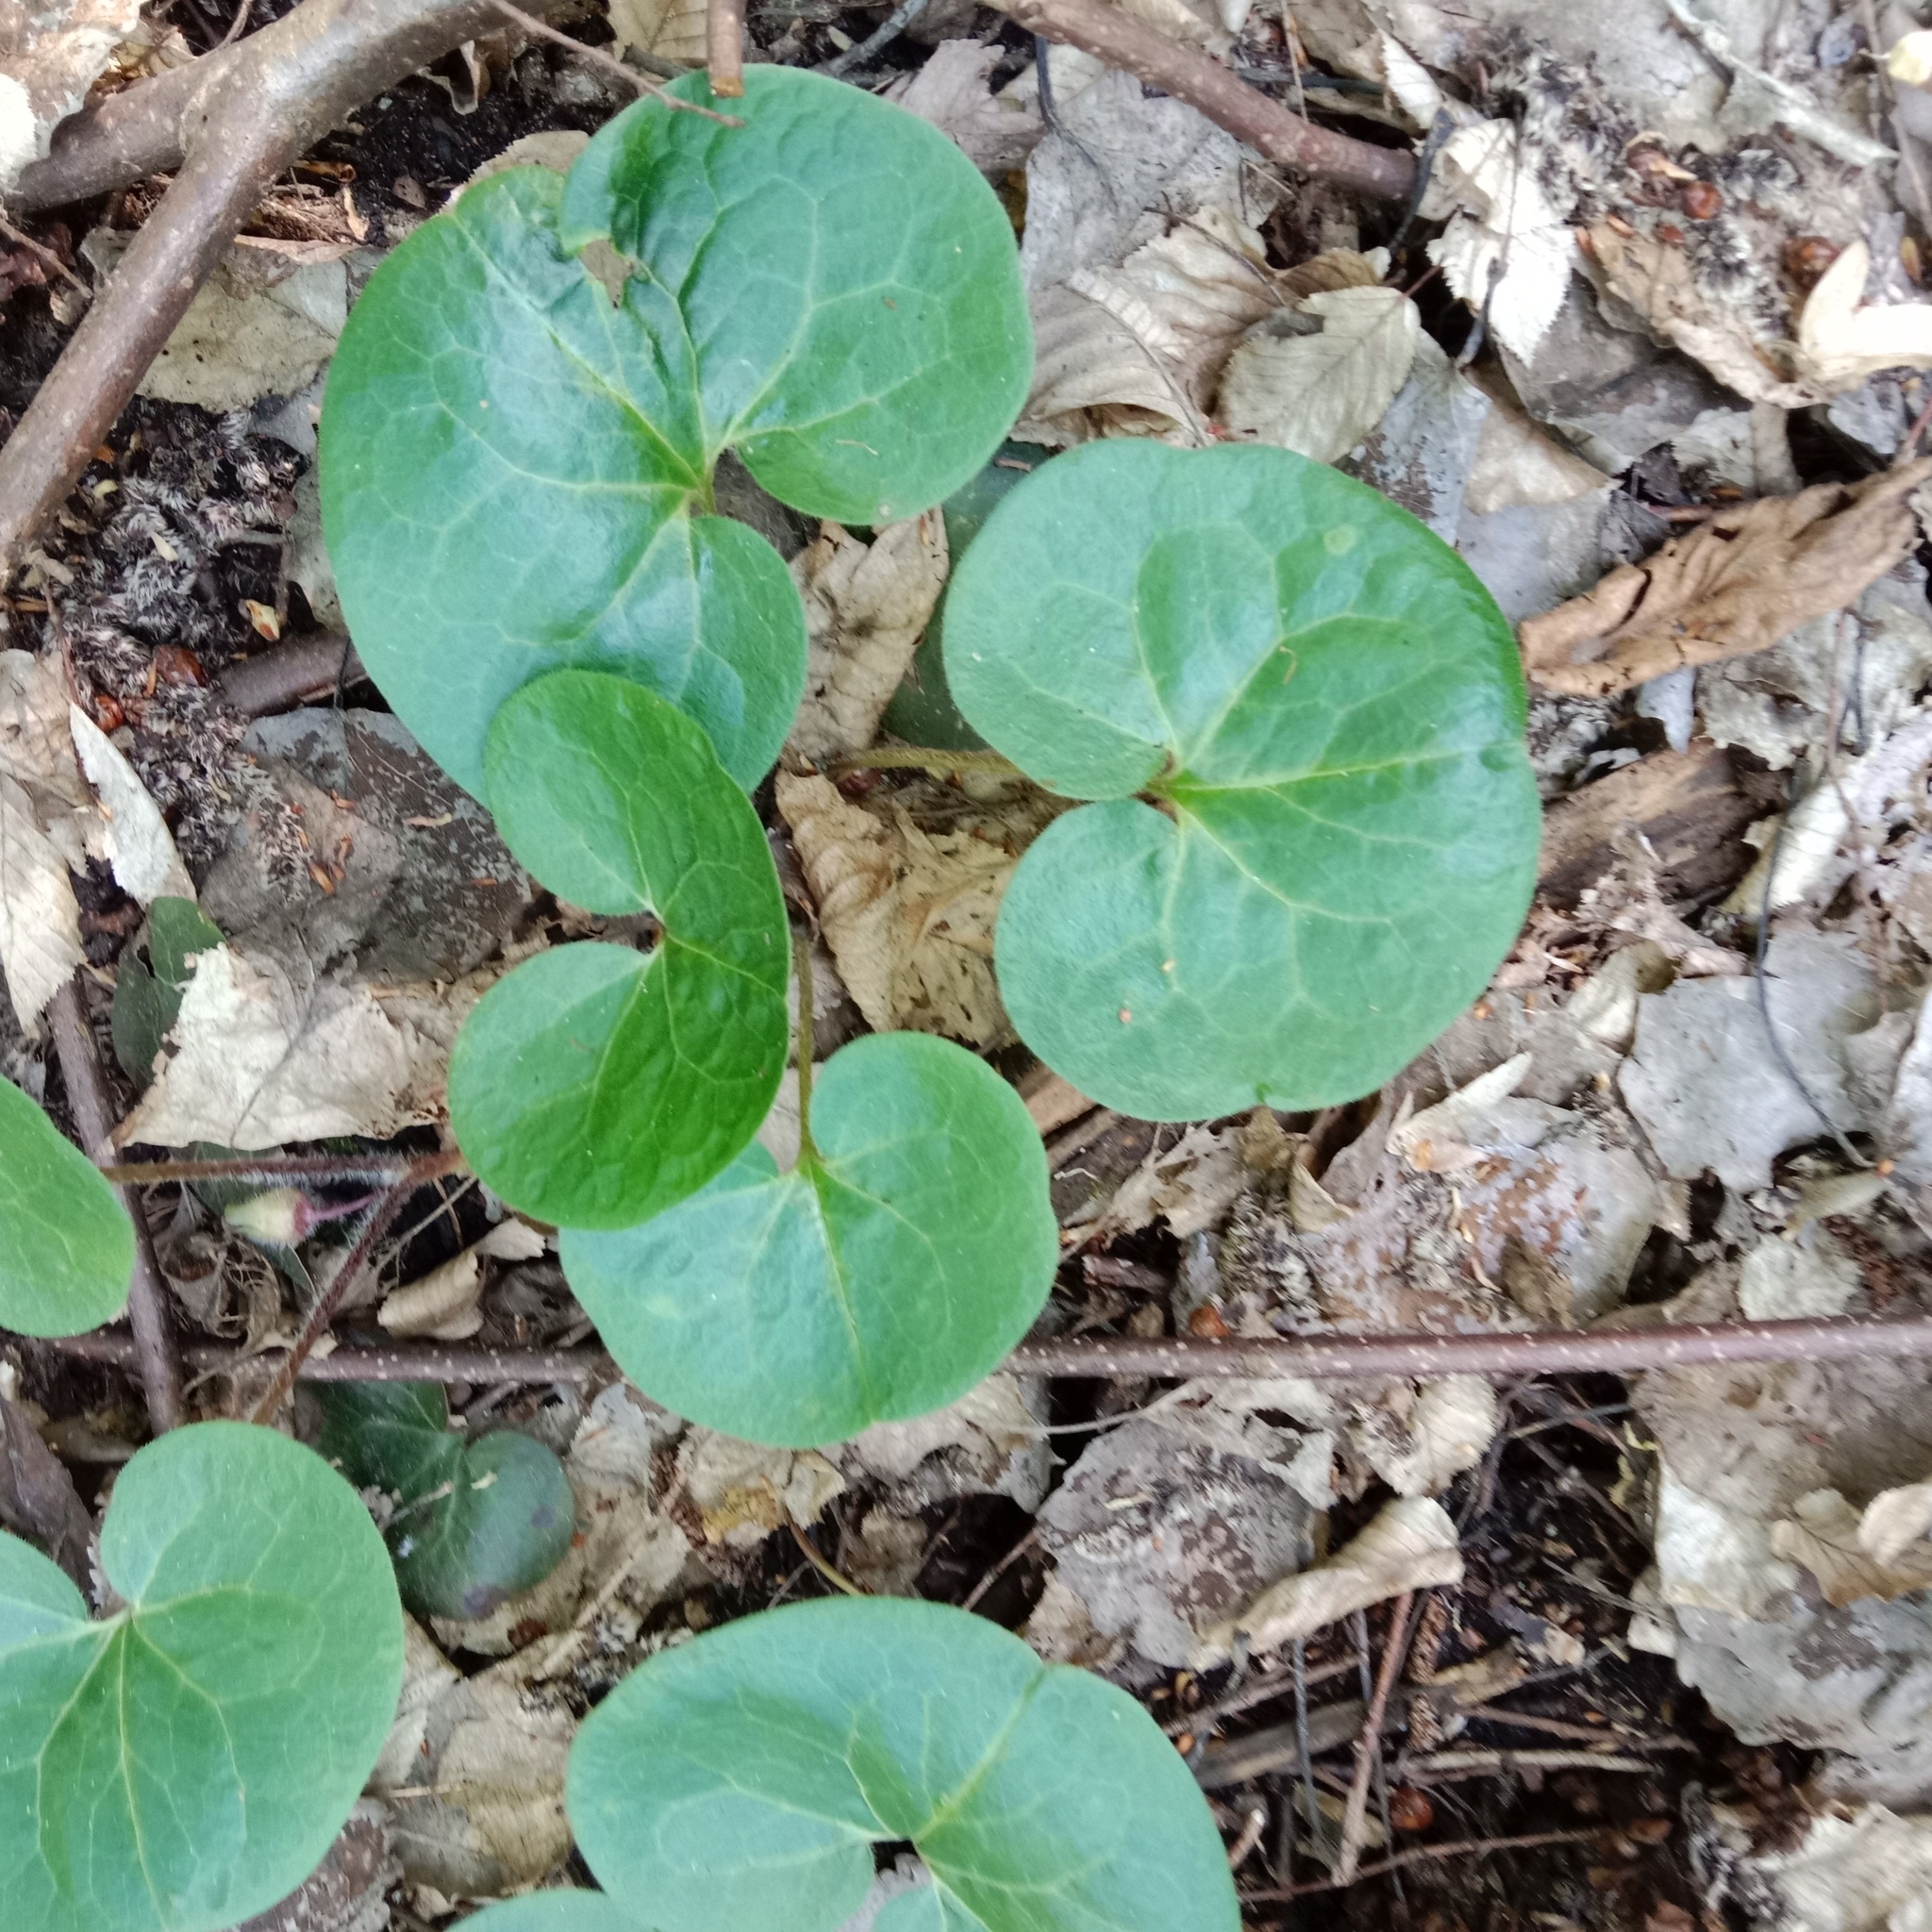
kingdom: Plantae
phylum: Tracheophyta
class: Magnoliopsida
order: Piperales
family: Aristolochiaceae
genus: Asarum
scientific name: Asarum europaeum
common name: Asarabacca
